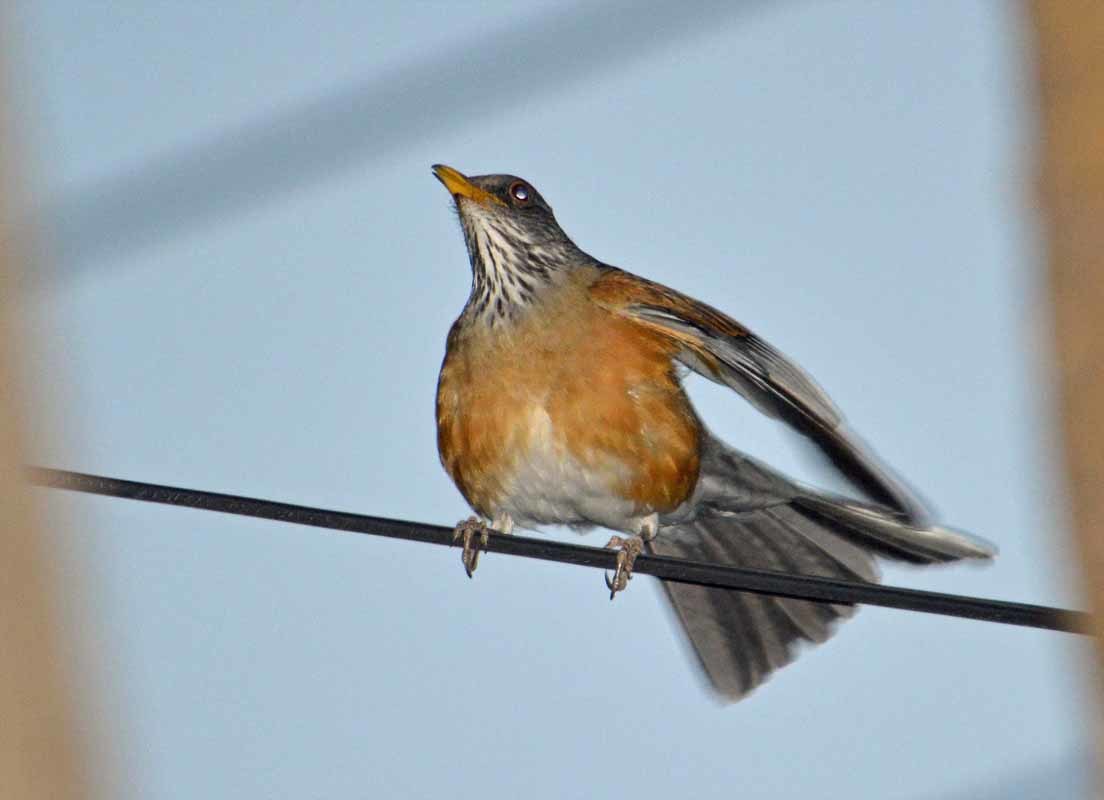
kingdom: Animalia
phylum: Chordata
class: Aves
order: Passeriformes
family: Turdidae
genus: Turdus
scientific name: Turdus rufopalliatus
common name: Rufous-backed robin
